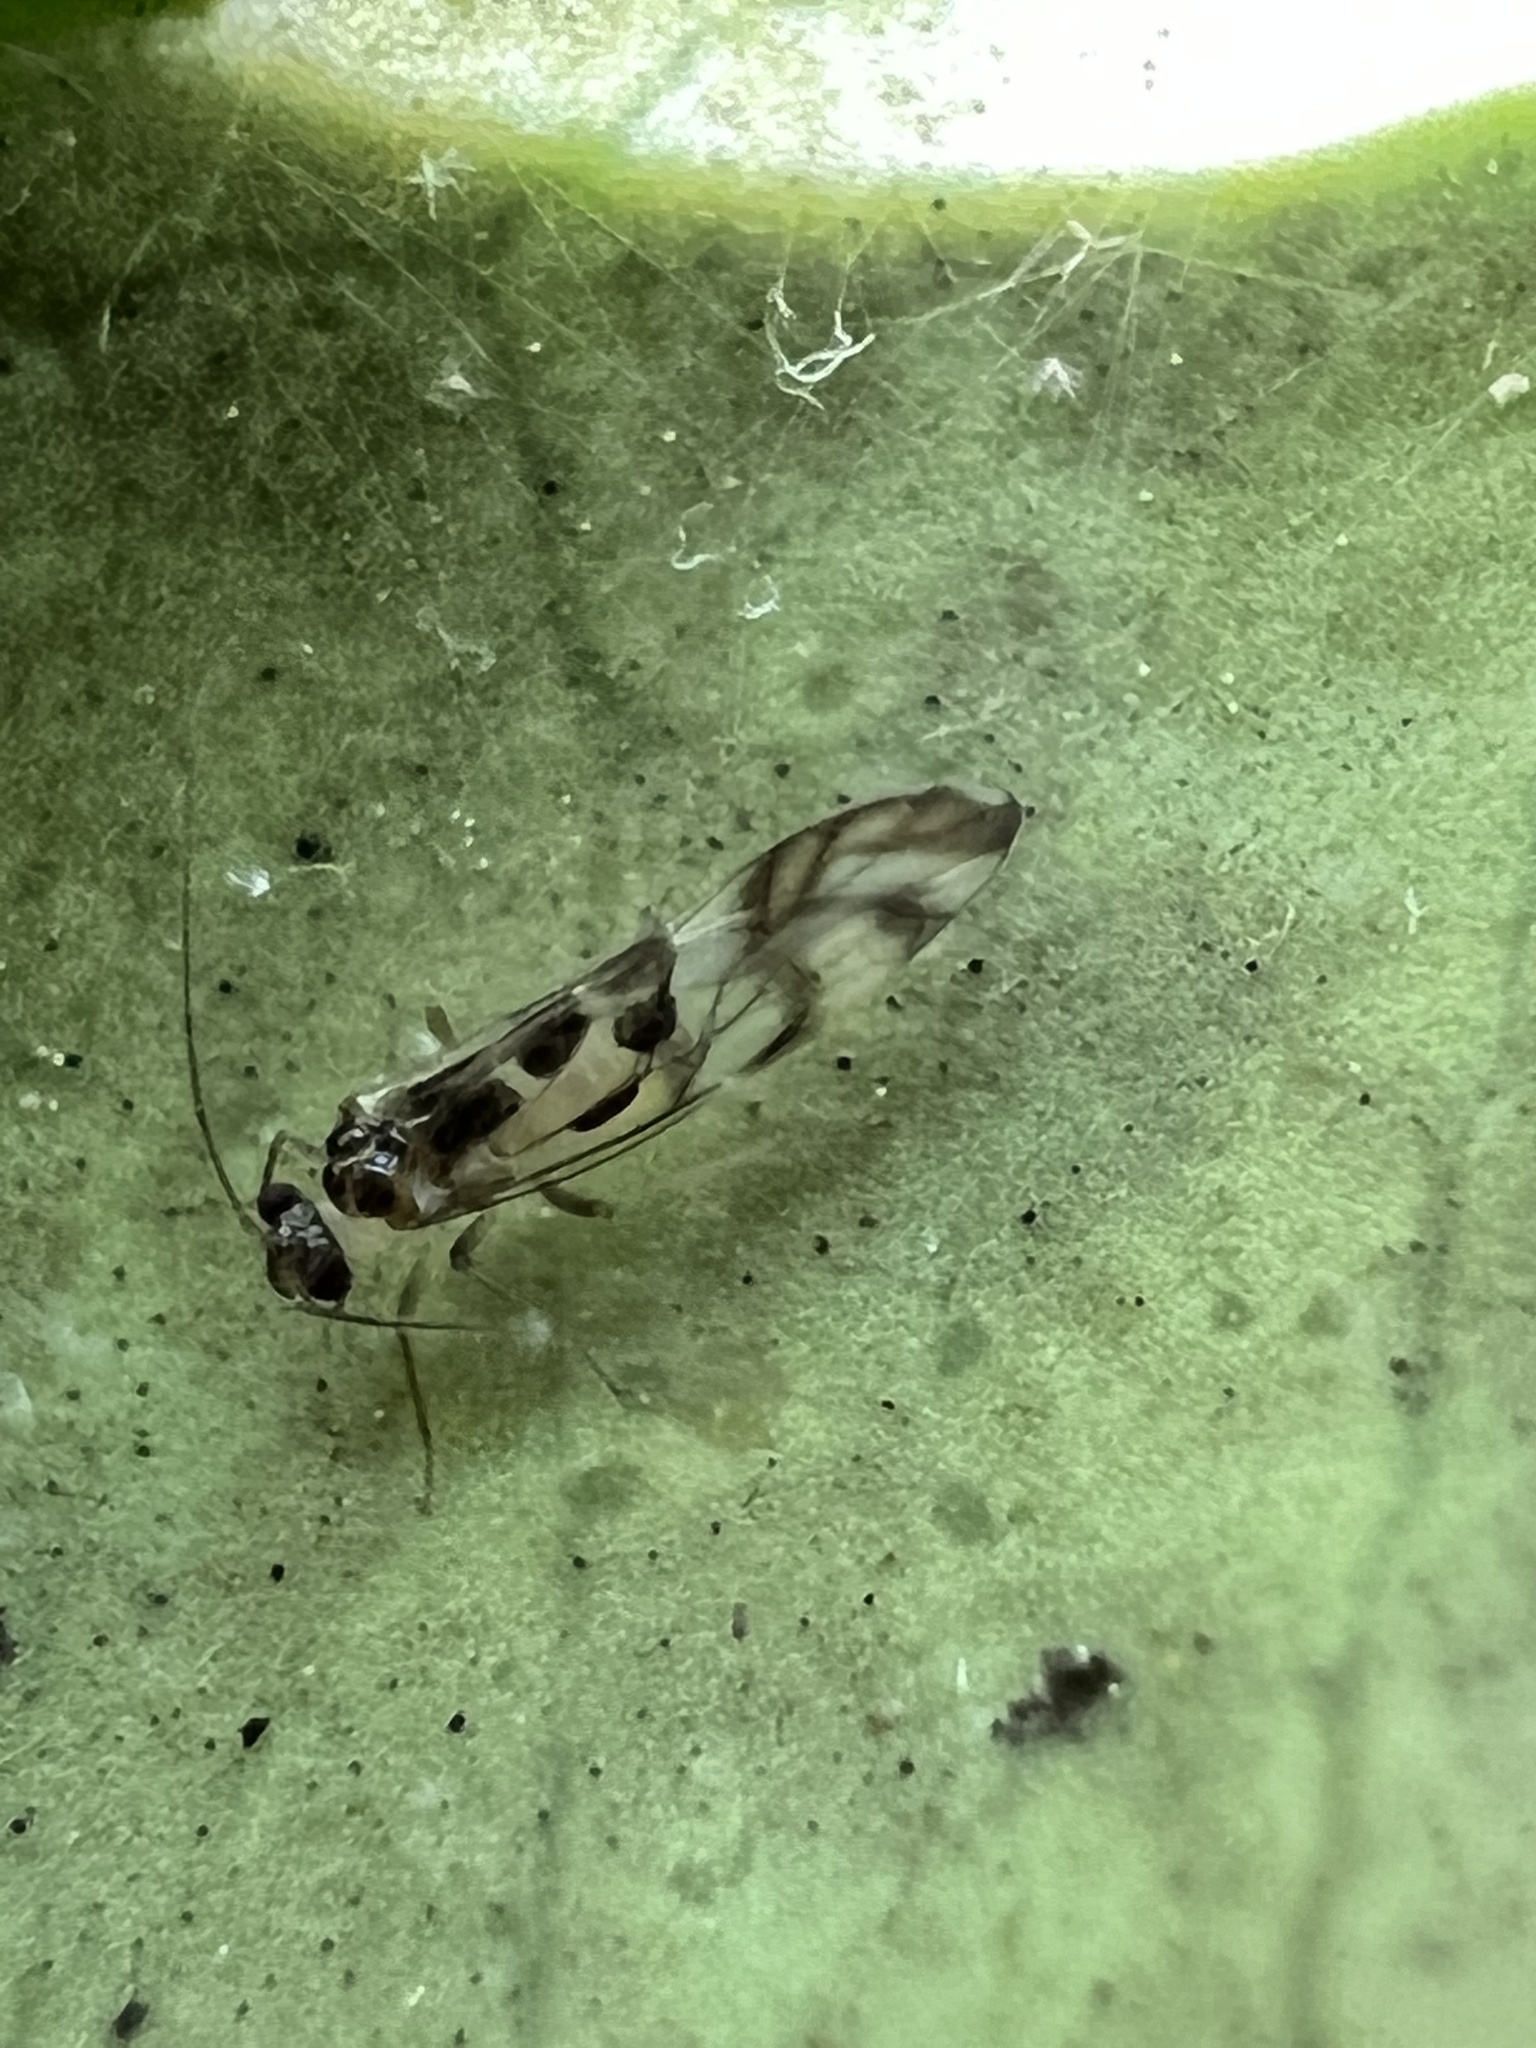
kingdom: Animalia
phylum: Arthropoda
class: Insecta
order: Psocodea
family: Stenopsocidae
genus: Graphopsocus
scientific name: Graphopsocus cruciatus
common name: Lizard bark louse
